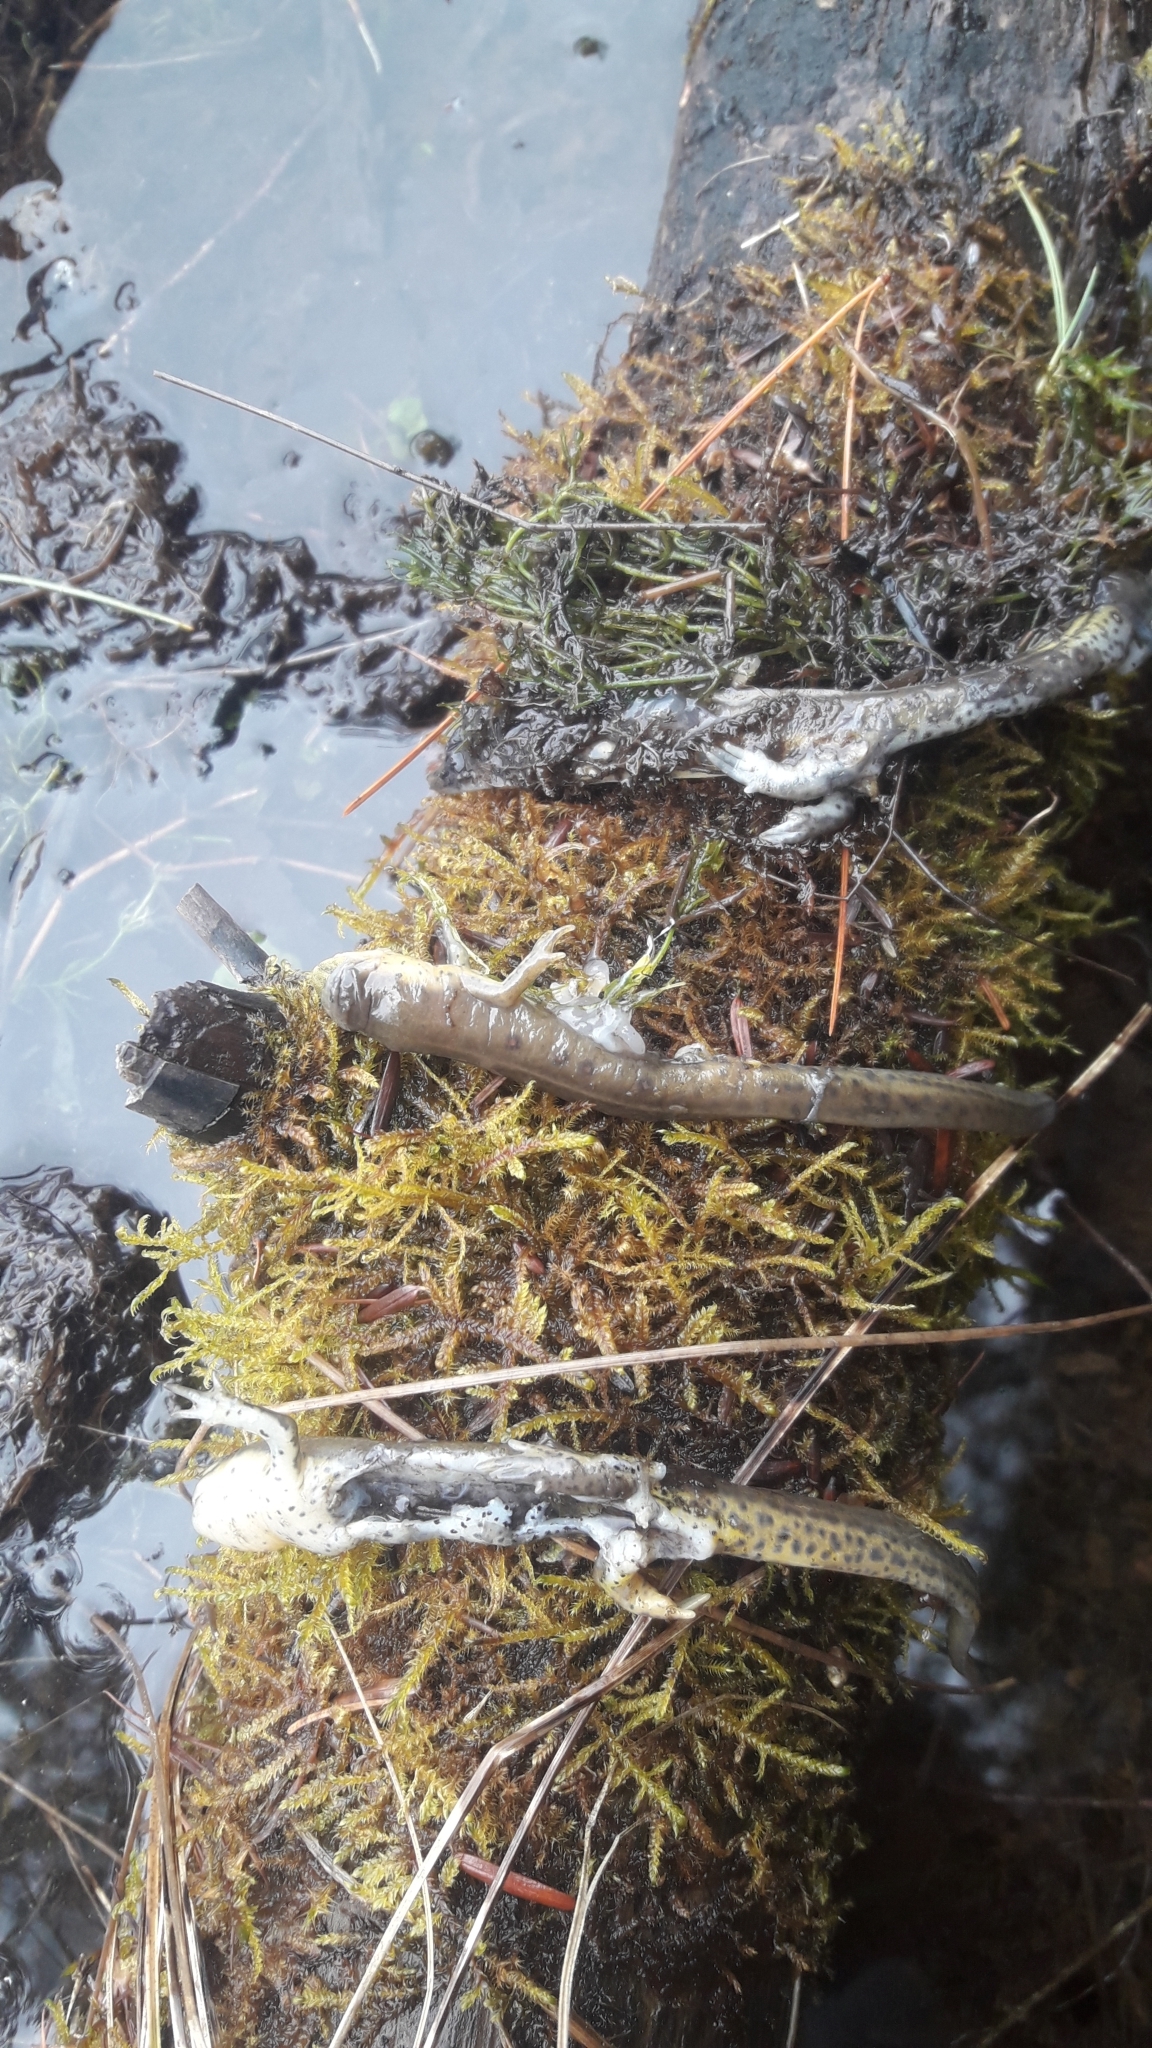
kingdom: Animalia
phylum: Chordata
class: Amphibia
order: Caudata
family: Salamandridae
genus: Notophthalmus
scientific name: Notophthalmus viridescens
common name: Eastern newt
